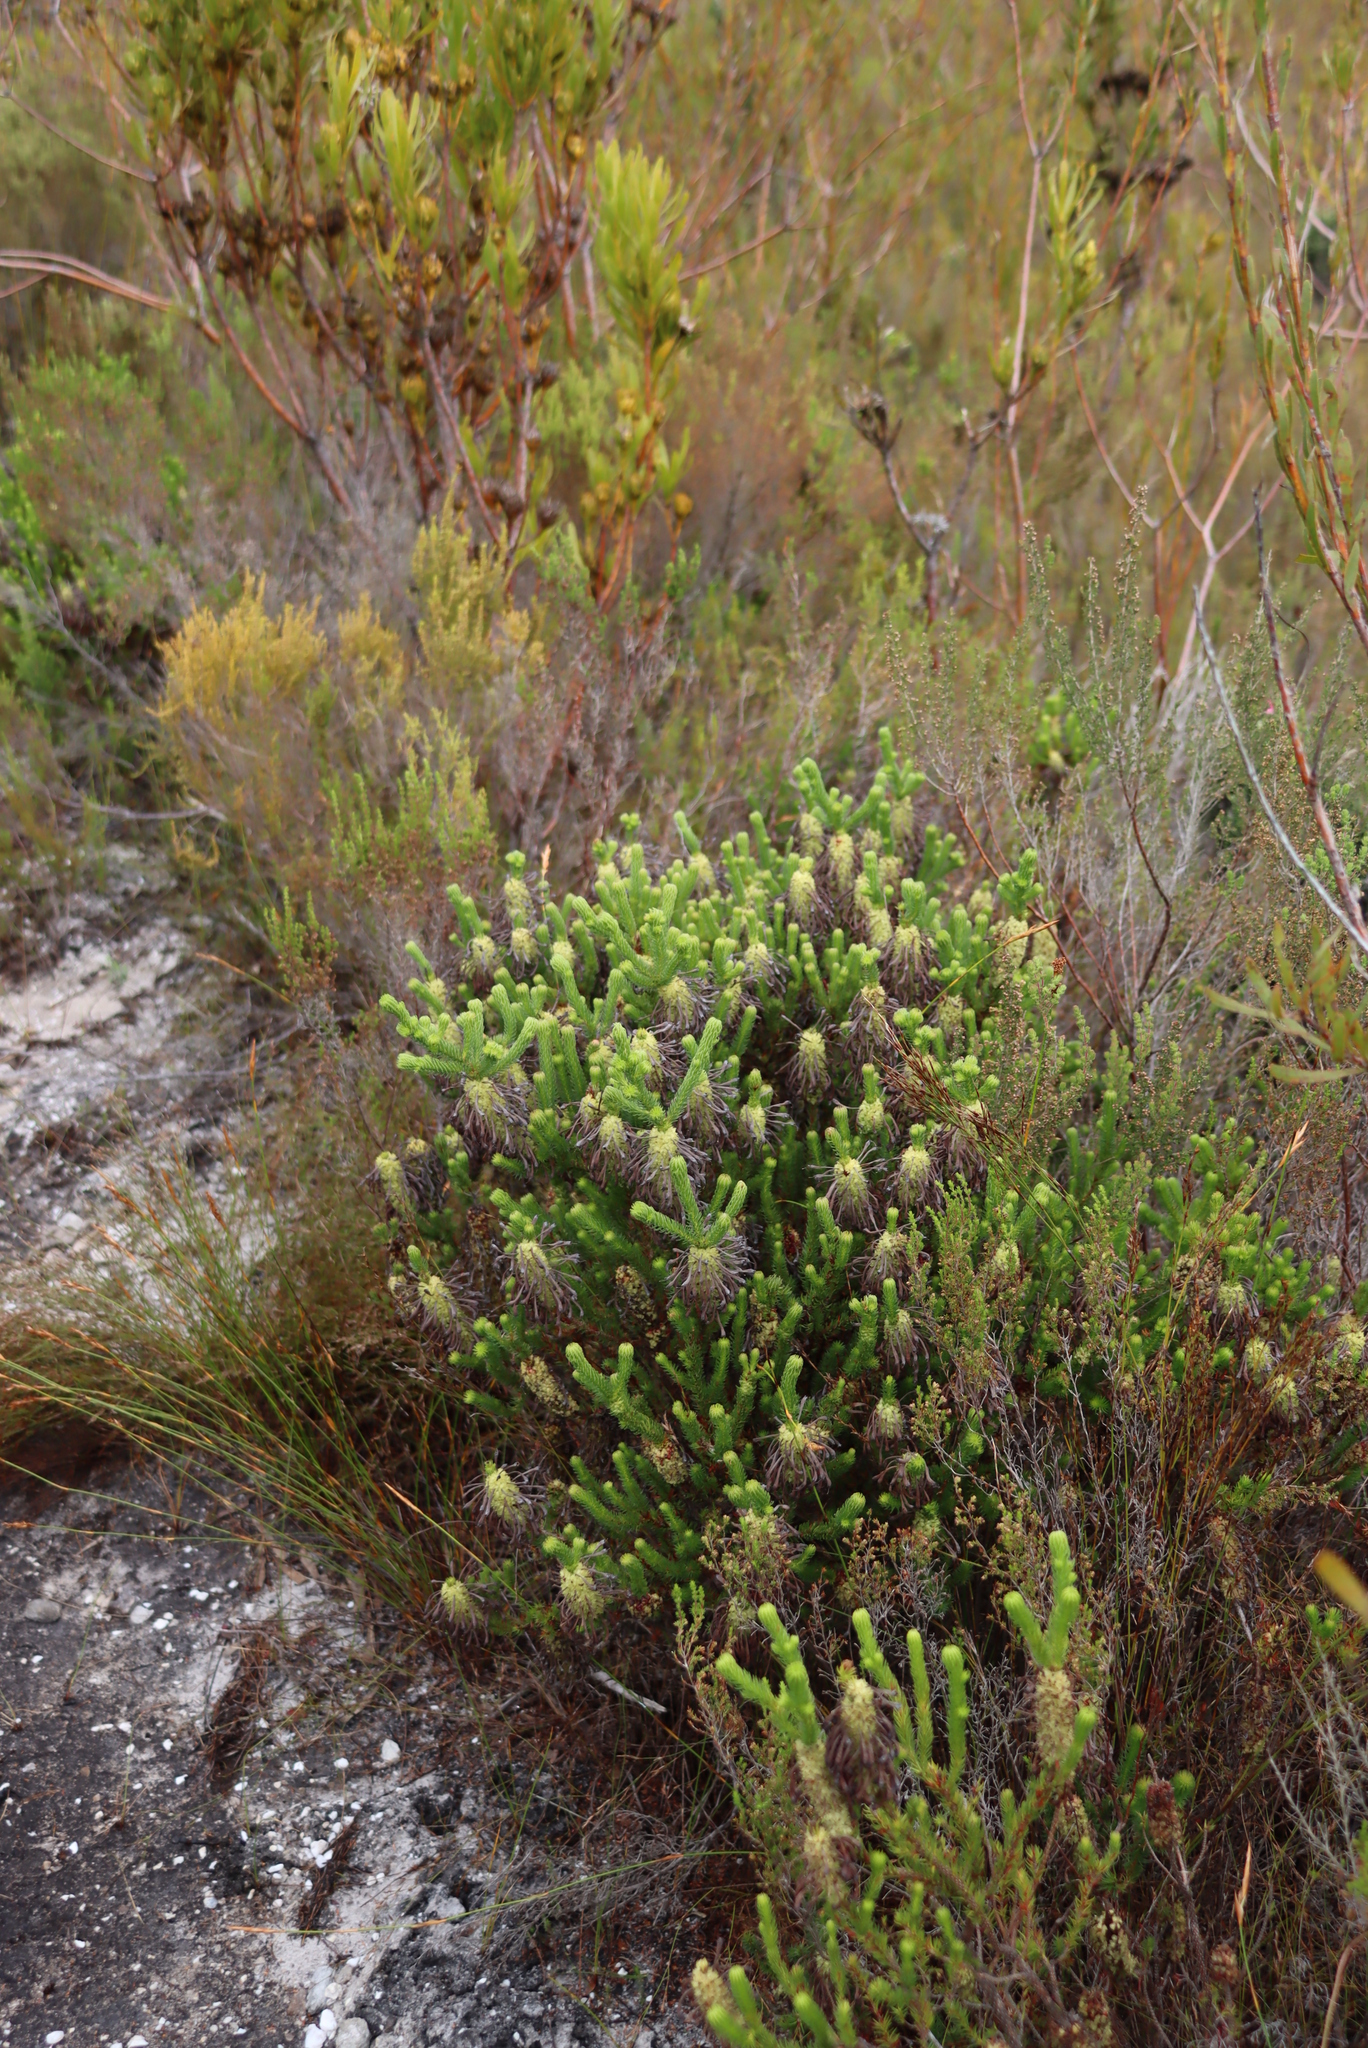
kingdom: Plantae
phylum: Tracheophyta
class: Magnoliopsida
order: Ericales
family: Ericaceae
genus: Erica
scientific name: Erica sessiliflora
